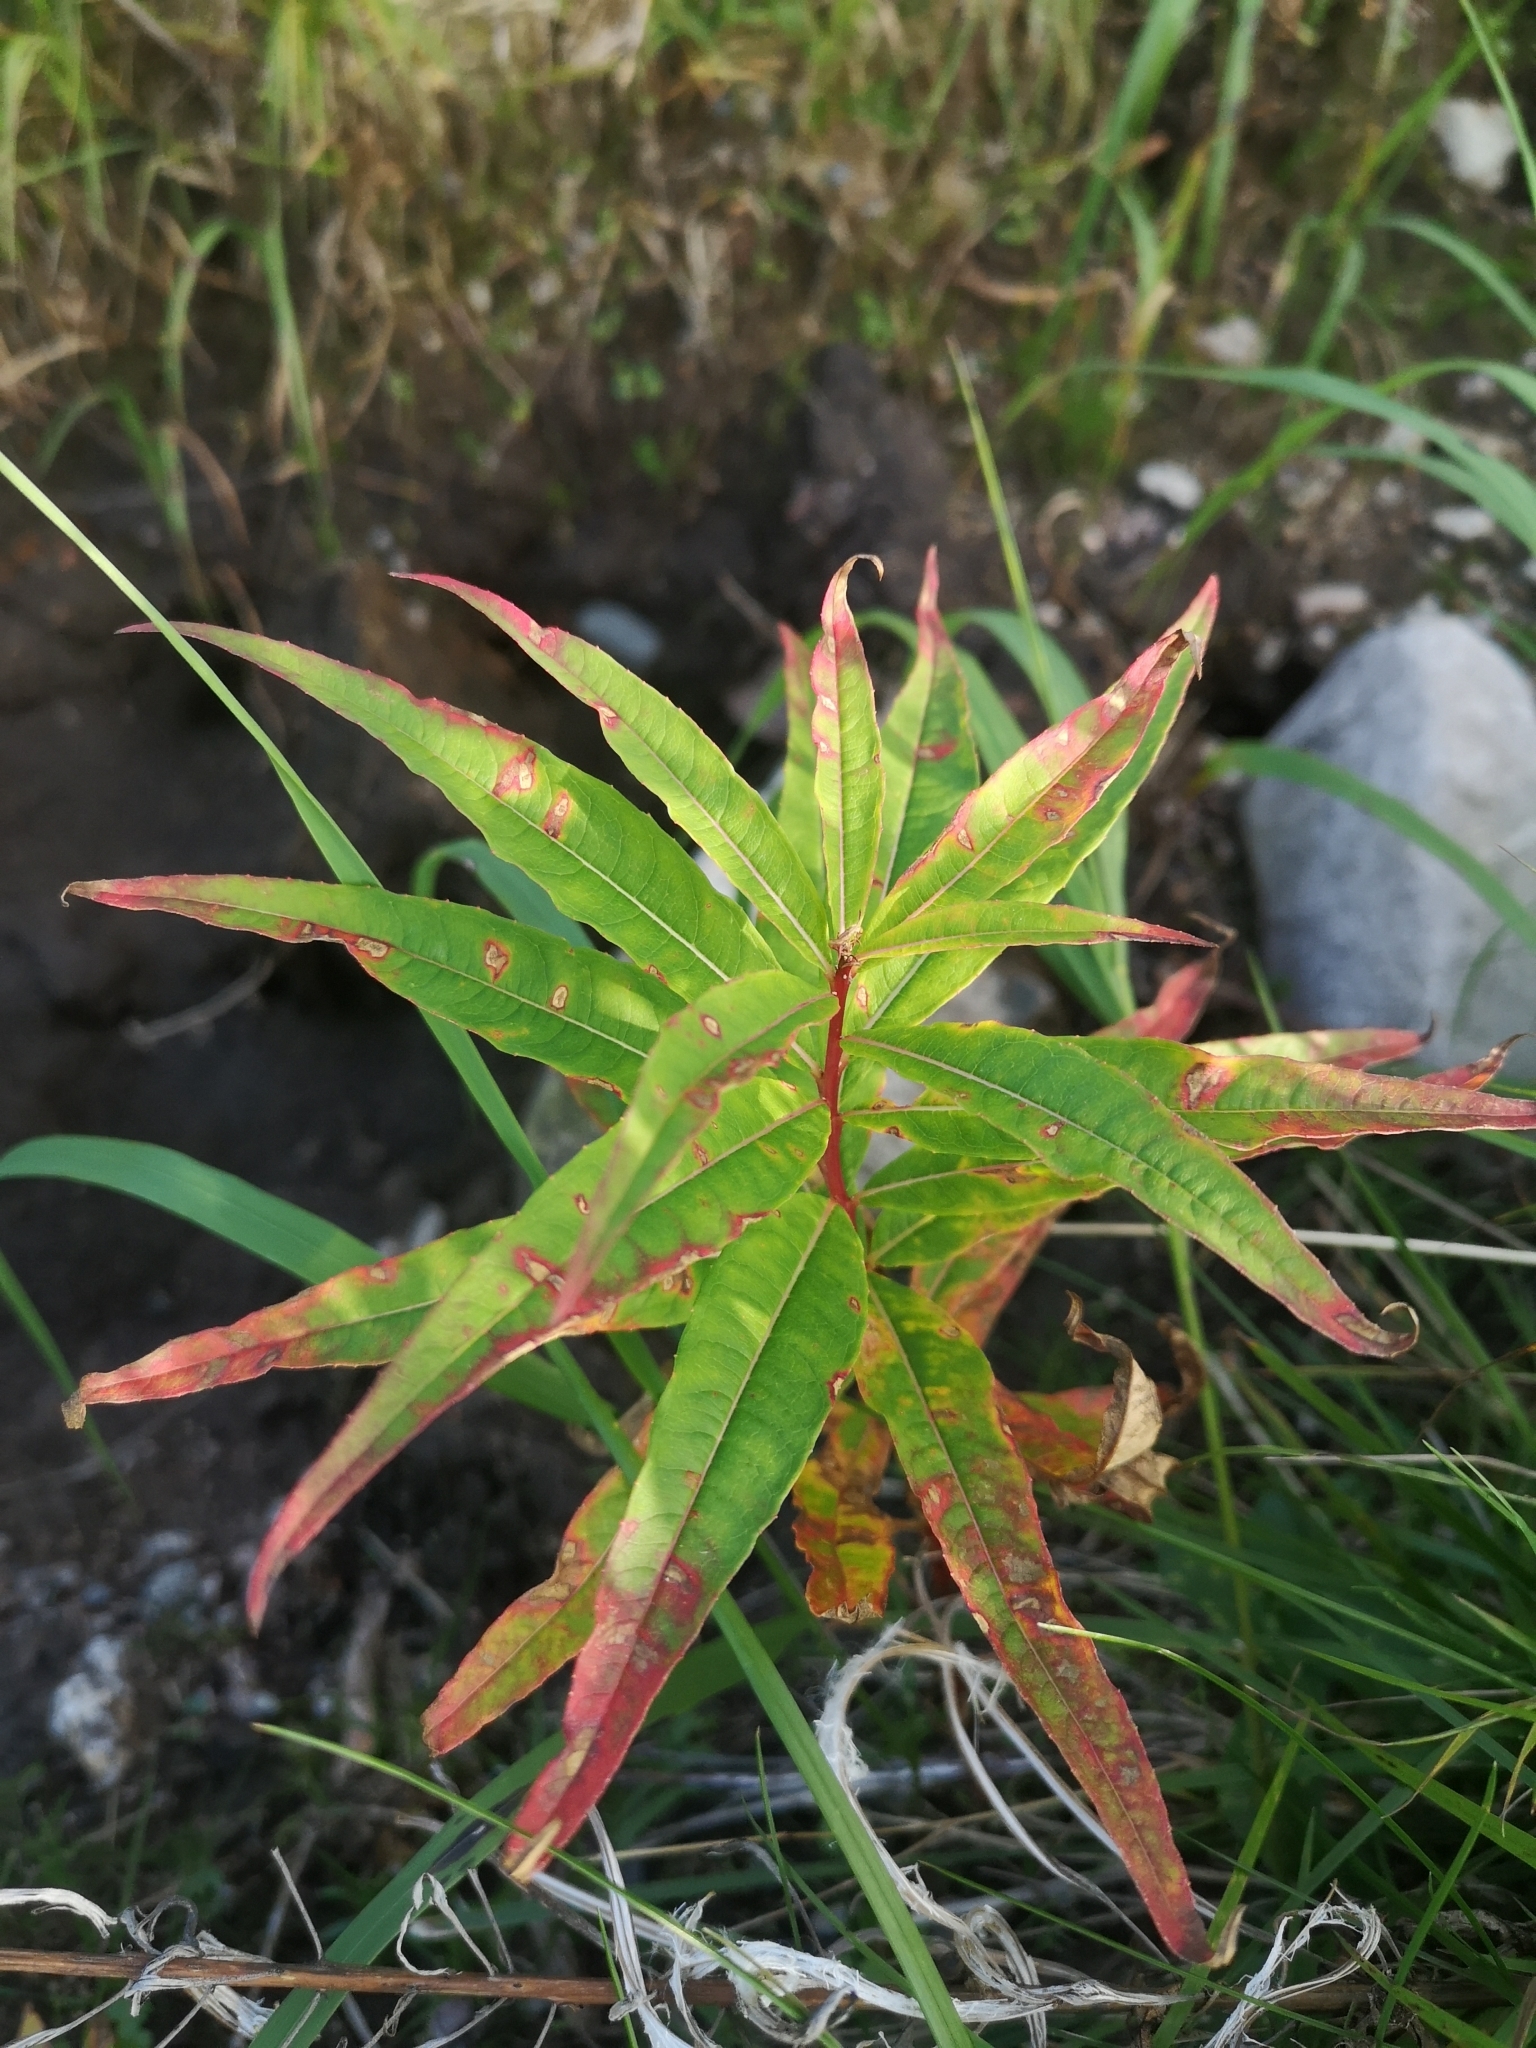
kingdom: Plantae
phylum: Tracheophyta
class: Magnoliopsida
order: Myrtales
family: Onagraceae
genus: Chamaenerion
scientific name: Chamaenerion angustifolium
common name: Fireweed
